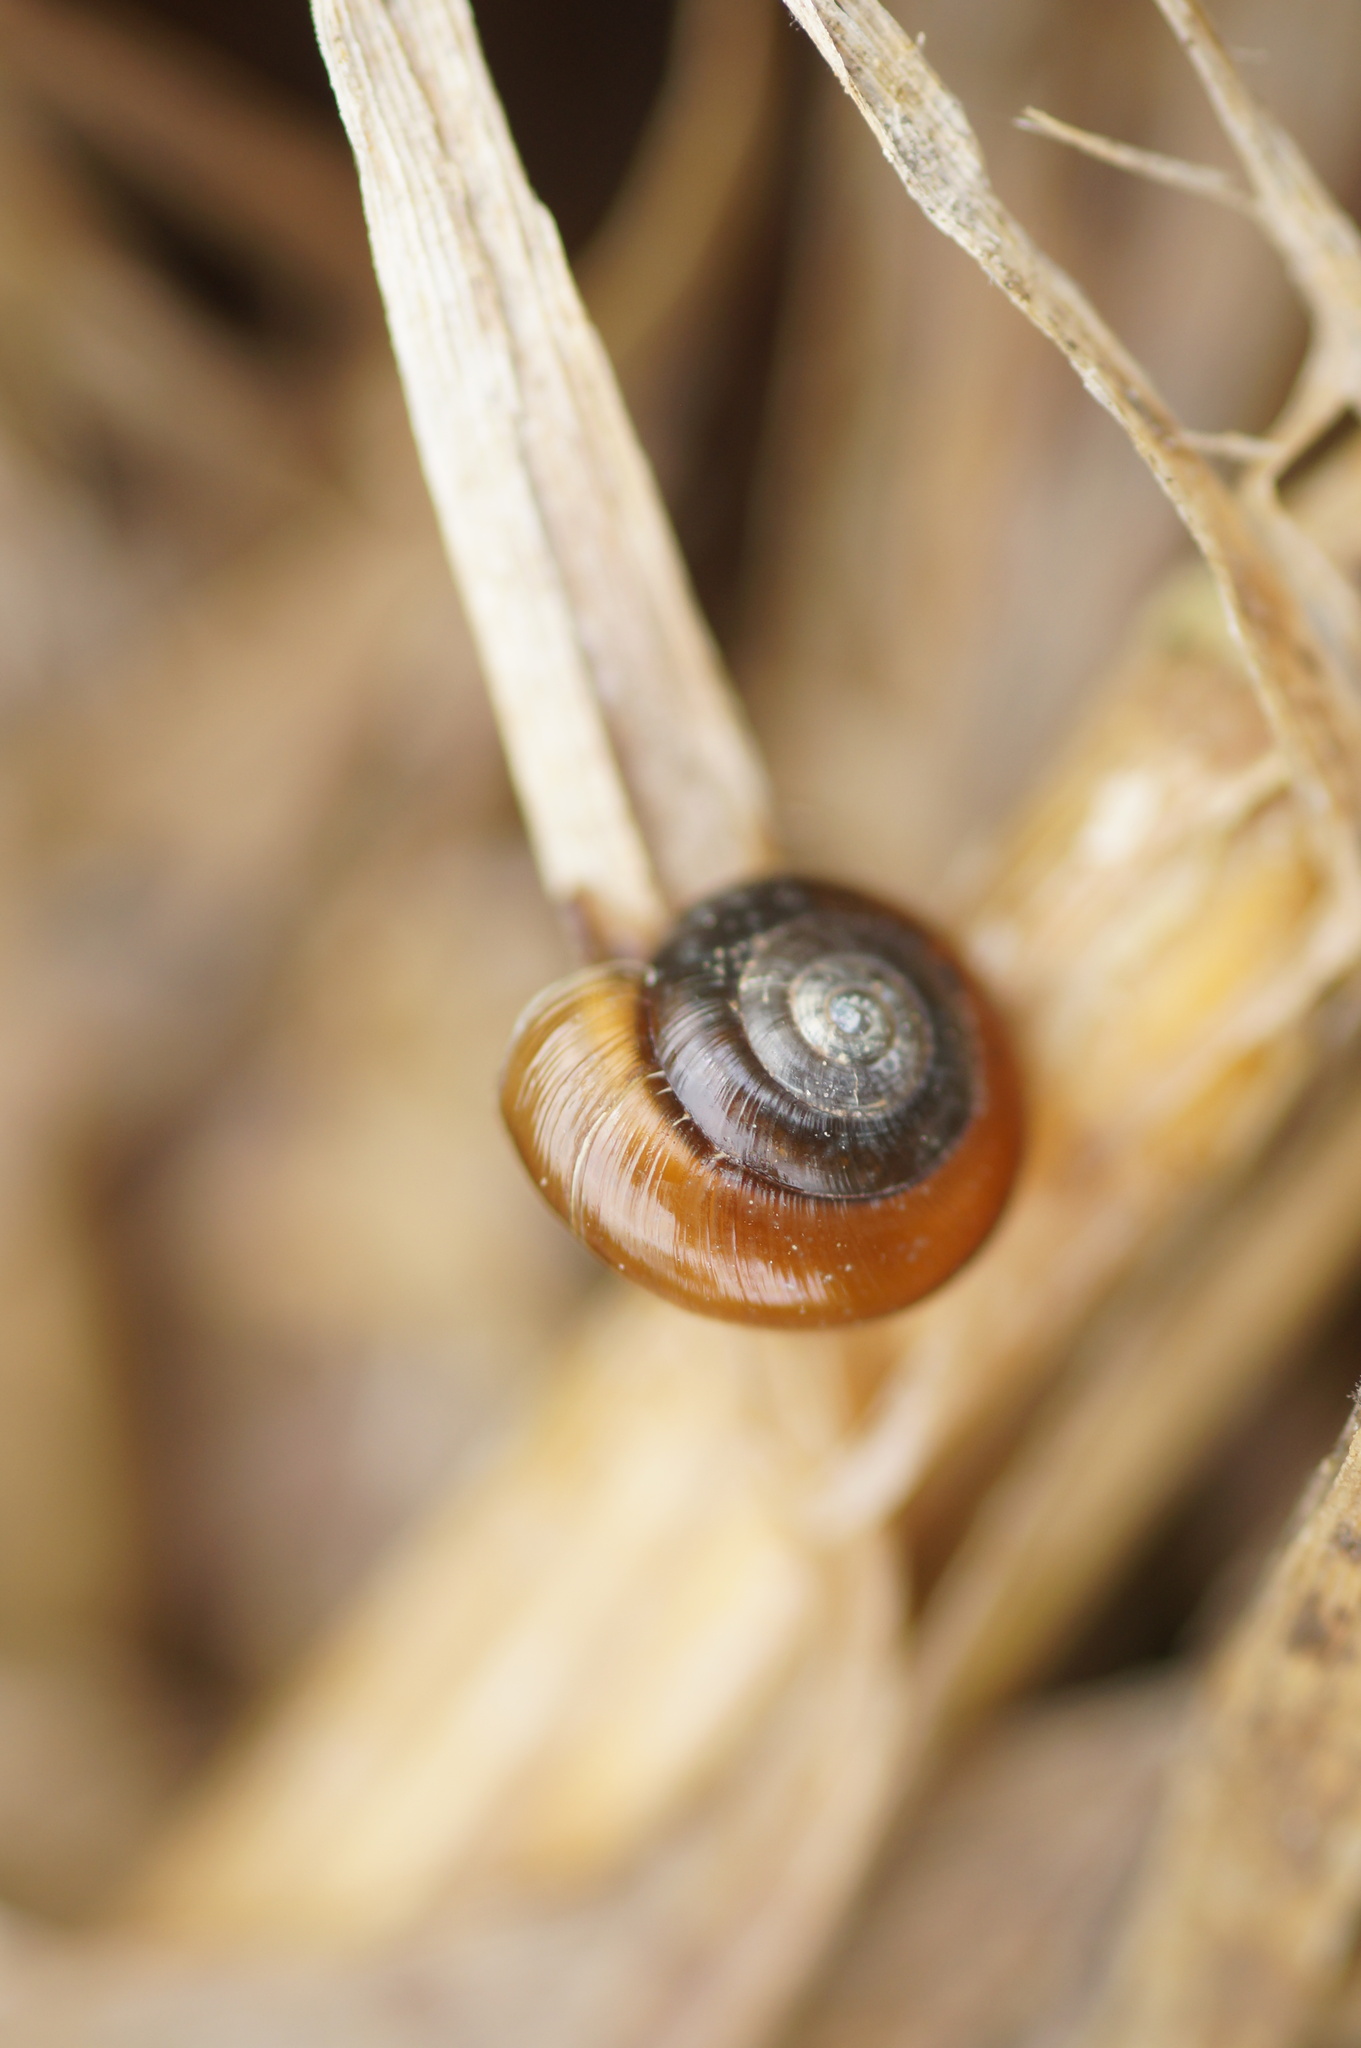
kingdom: Animalia
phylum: Mollusca
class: Gastropoda
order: Stylommatophora
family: Gastrodontidae
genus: Zonitoides
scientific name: Zonitoides nitidus
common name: Shiny glass snail
